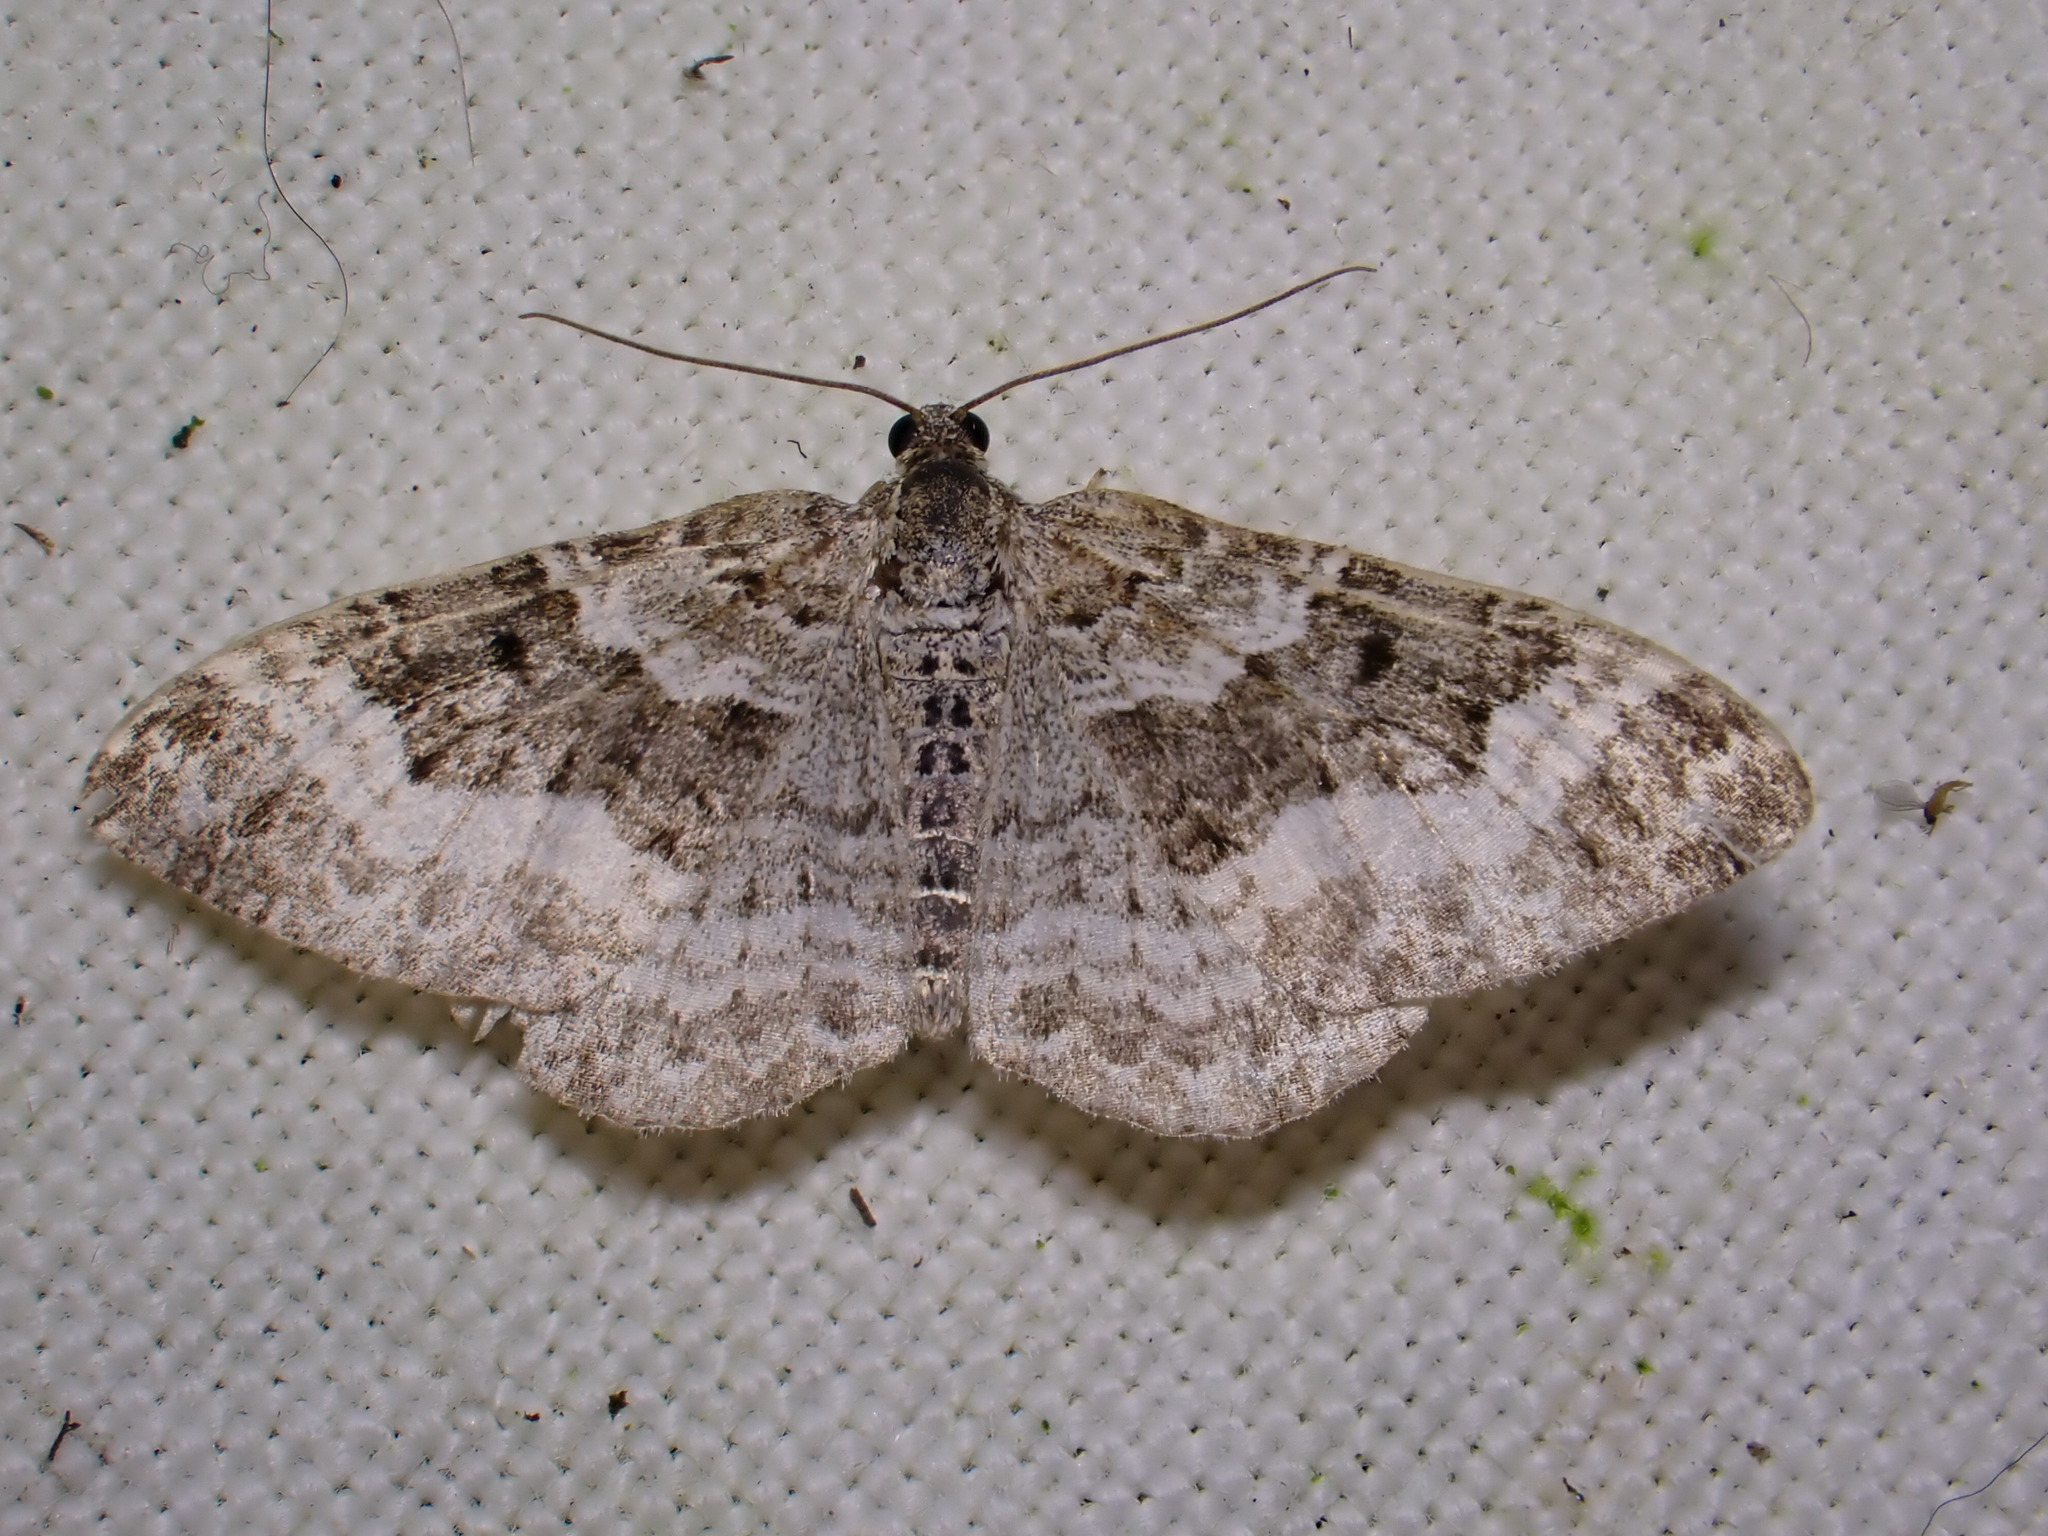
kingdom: Animalia
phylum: Arthropoda
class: Insecta
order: Lepidoptera
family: Geometridae
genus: Epirrhoe
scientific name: Epirrhoe alternata
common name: Common carpet
